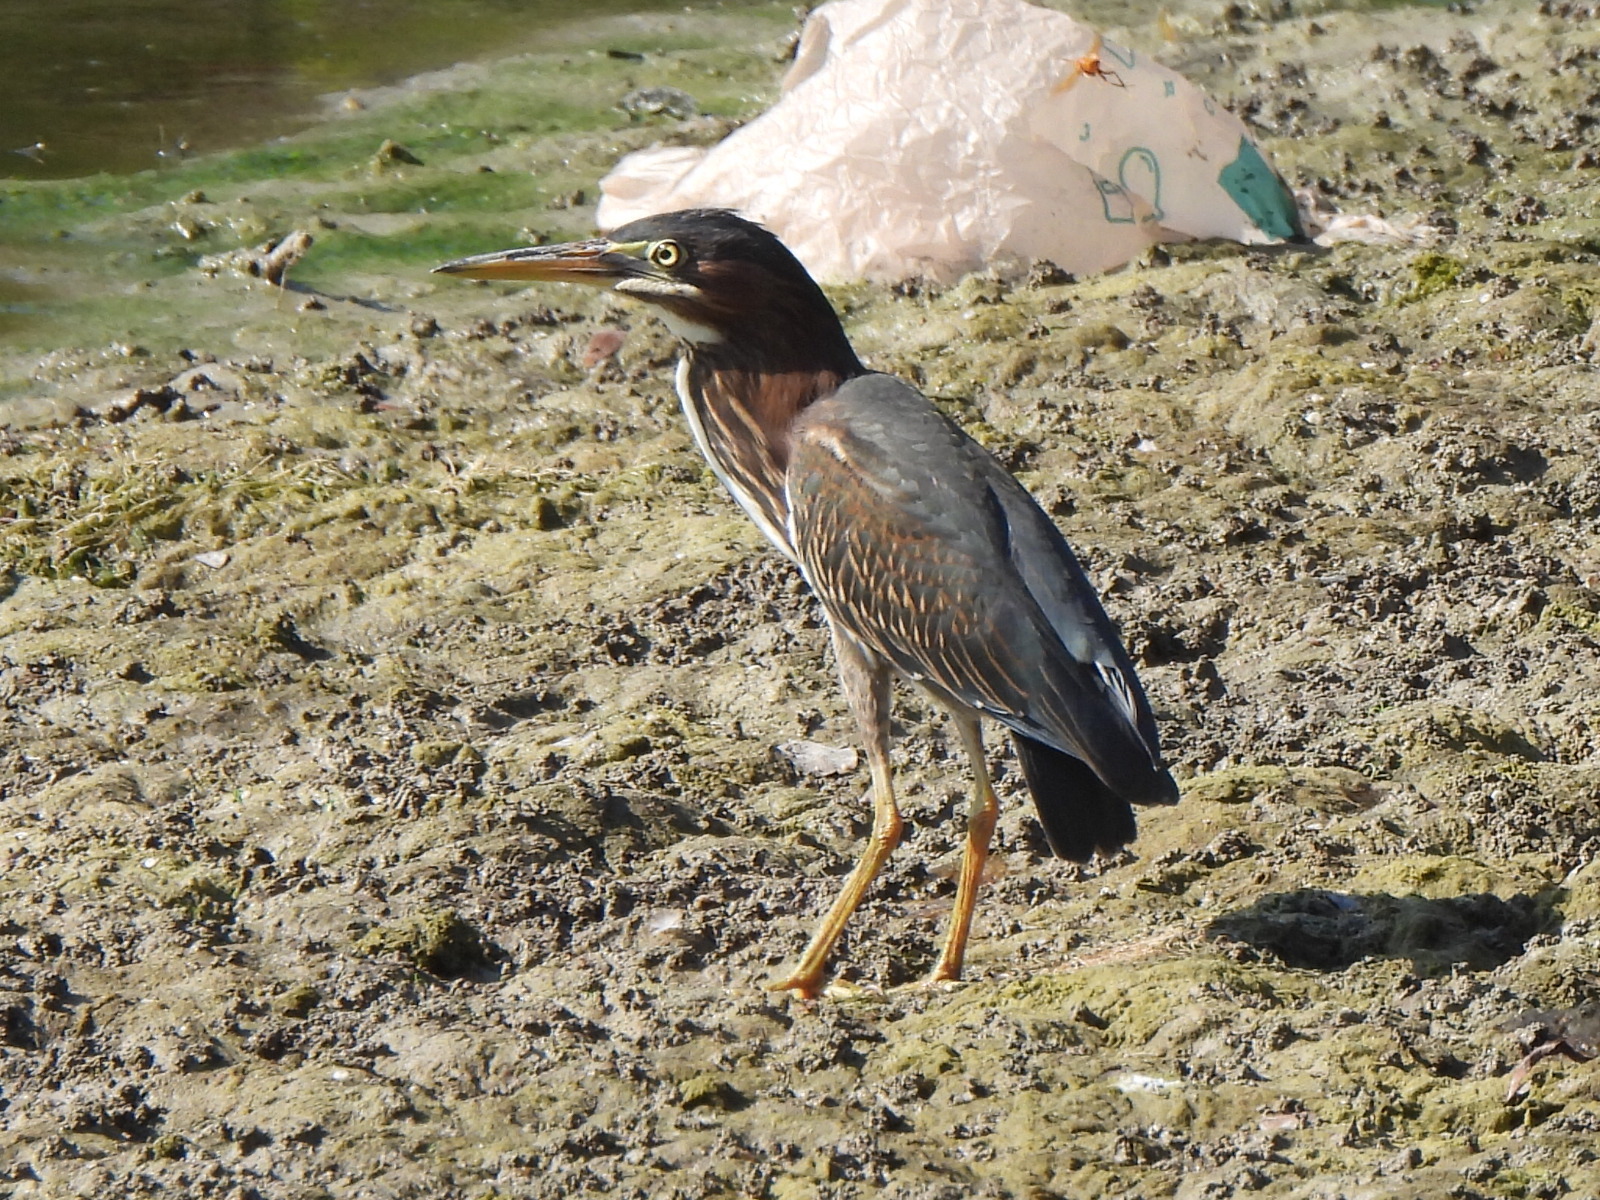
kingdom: Animalia
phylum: Chordata
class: Aves
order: Pelecaniformes
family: Ardeidae
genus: Butorides
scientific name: Butorides virescens
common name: Green heron
